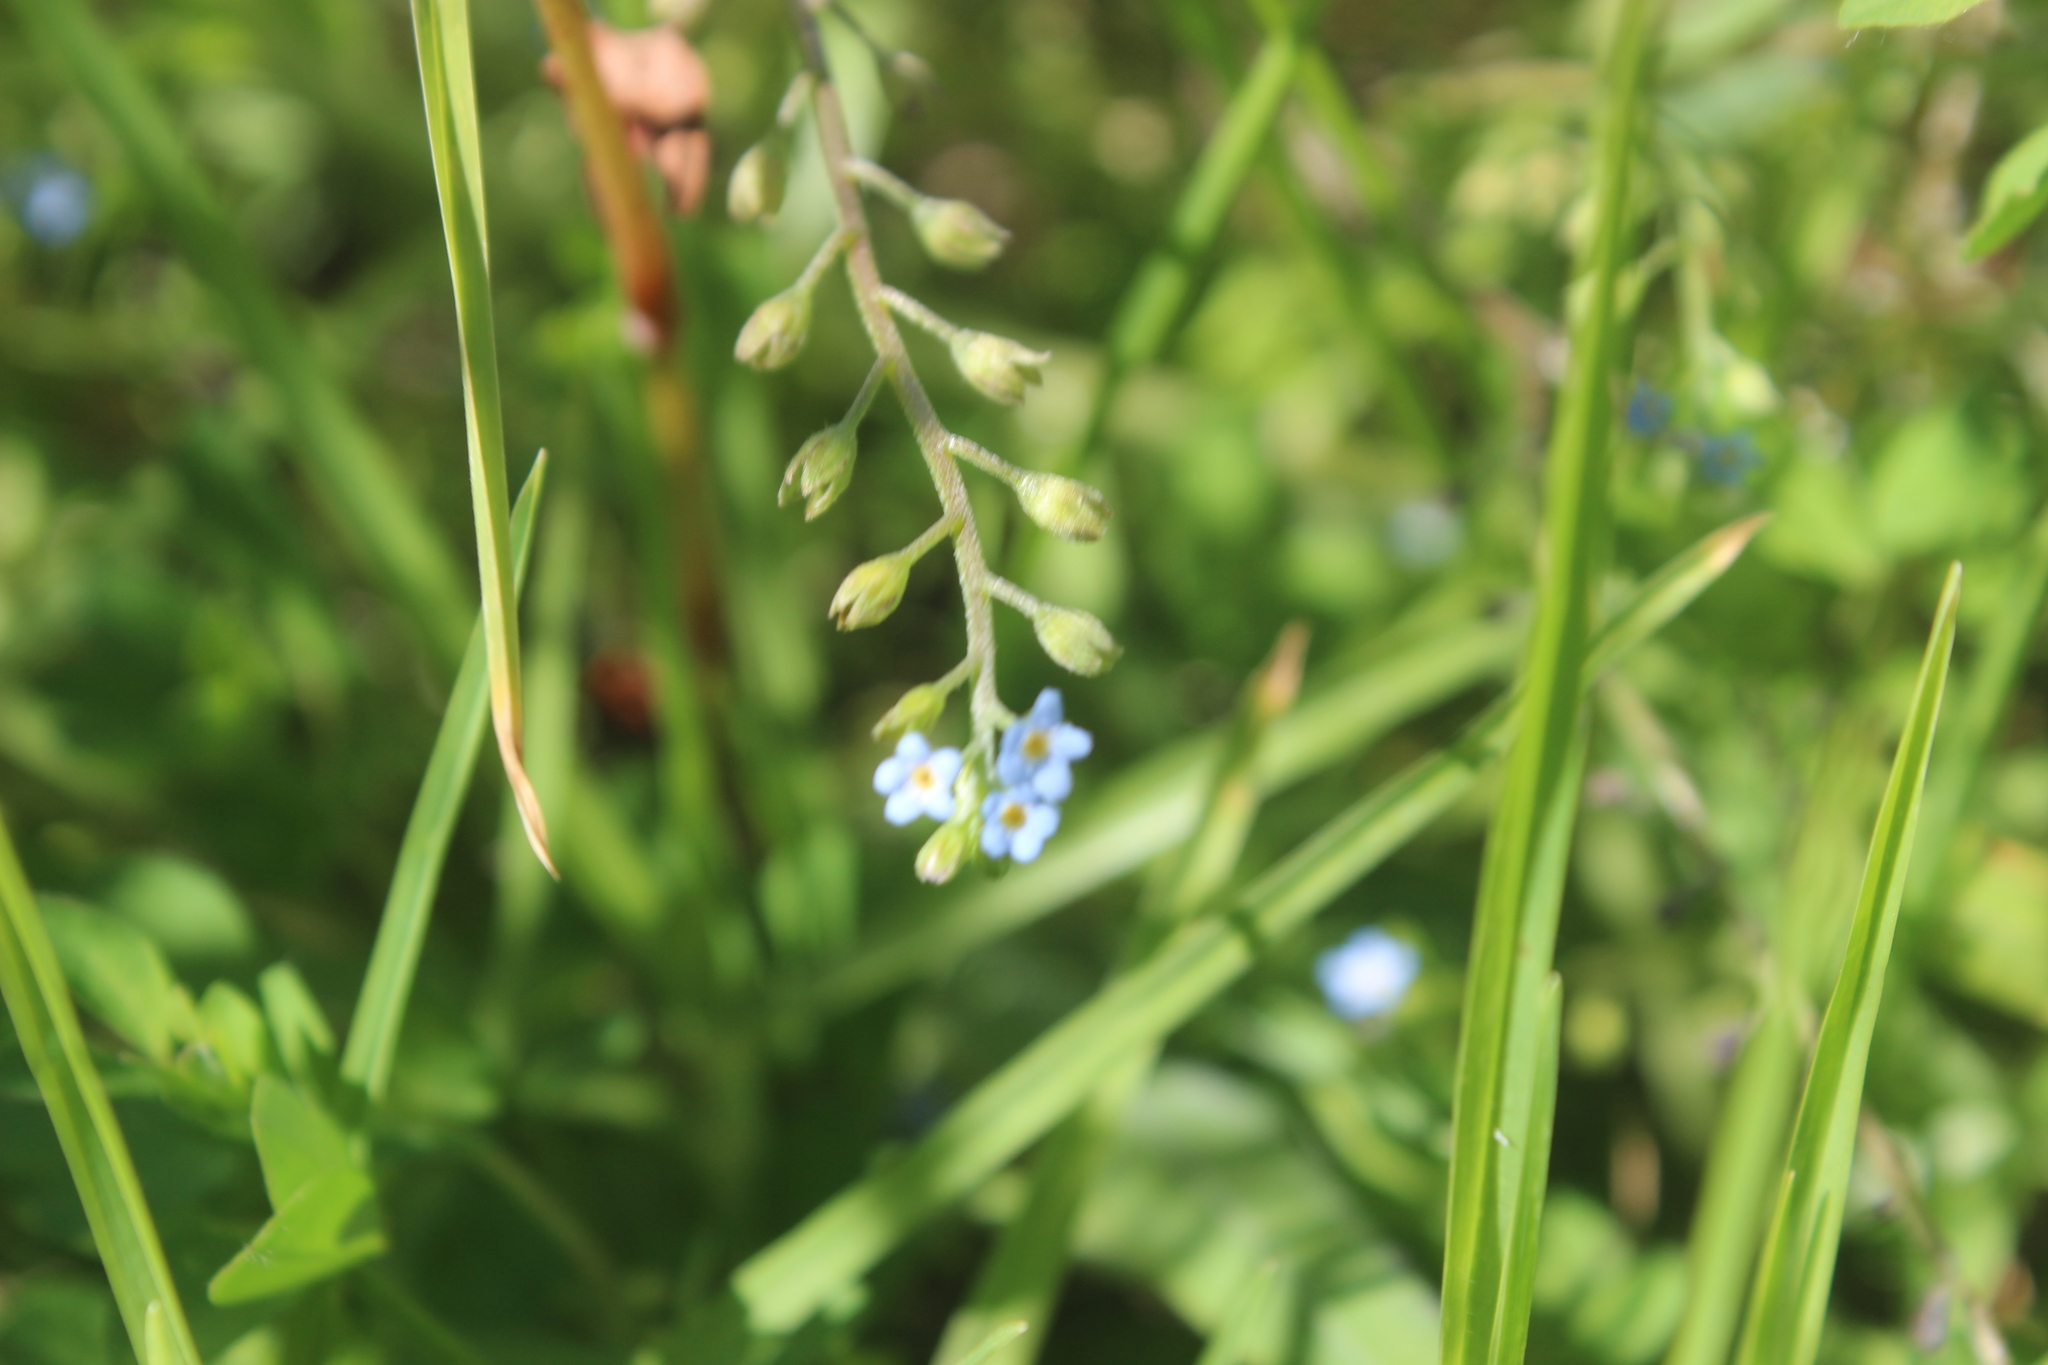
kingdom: Plantae
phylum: Tracheophyta
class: Magnoliopsida
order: Boraginales
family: Boraginaceae
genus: Myosotis
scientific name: Myosotis laxa
